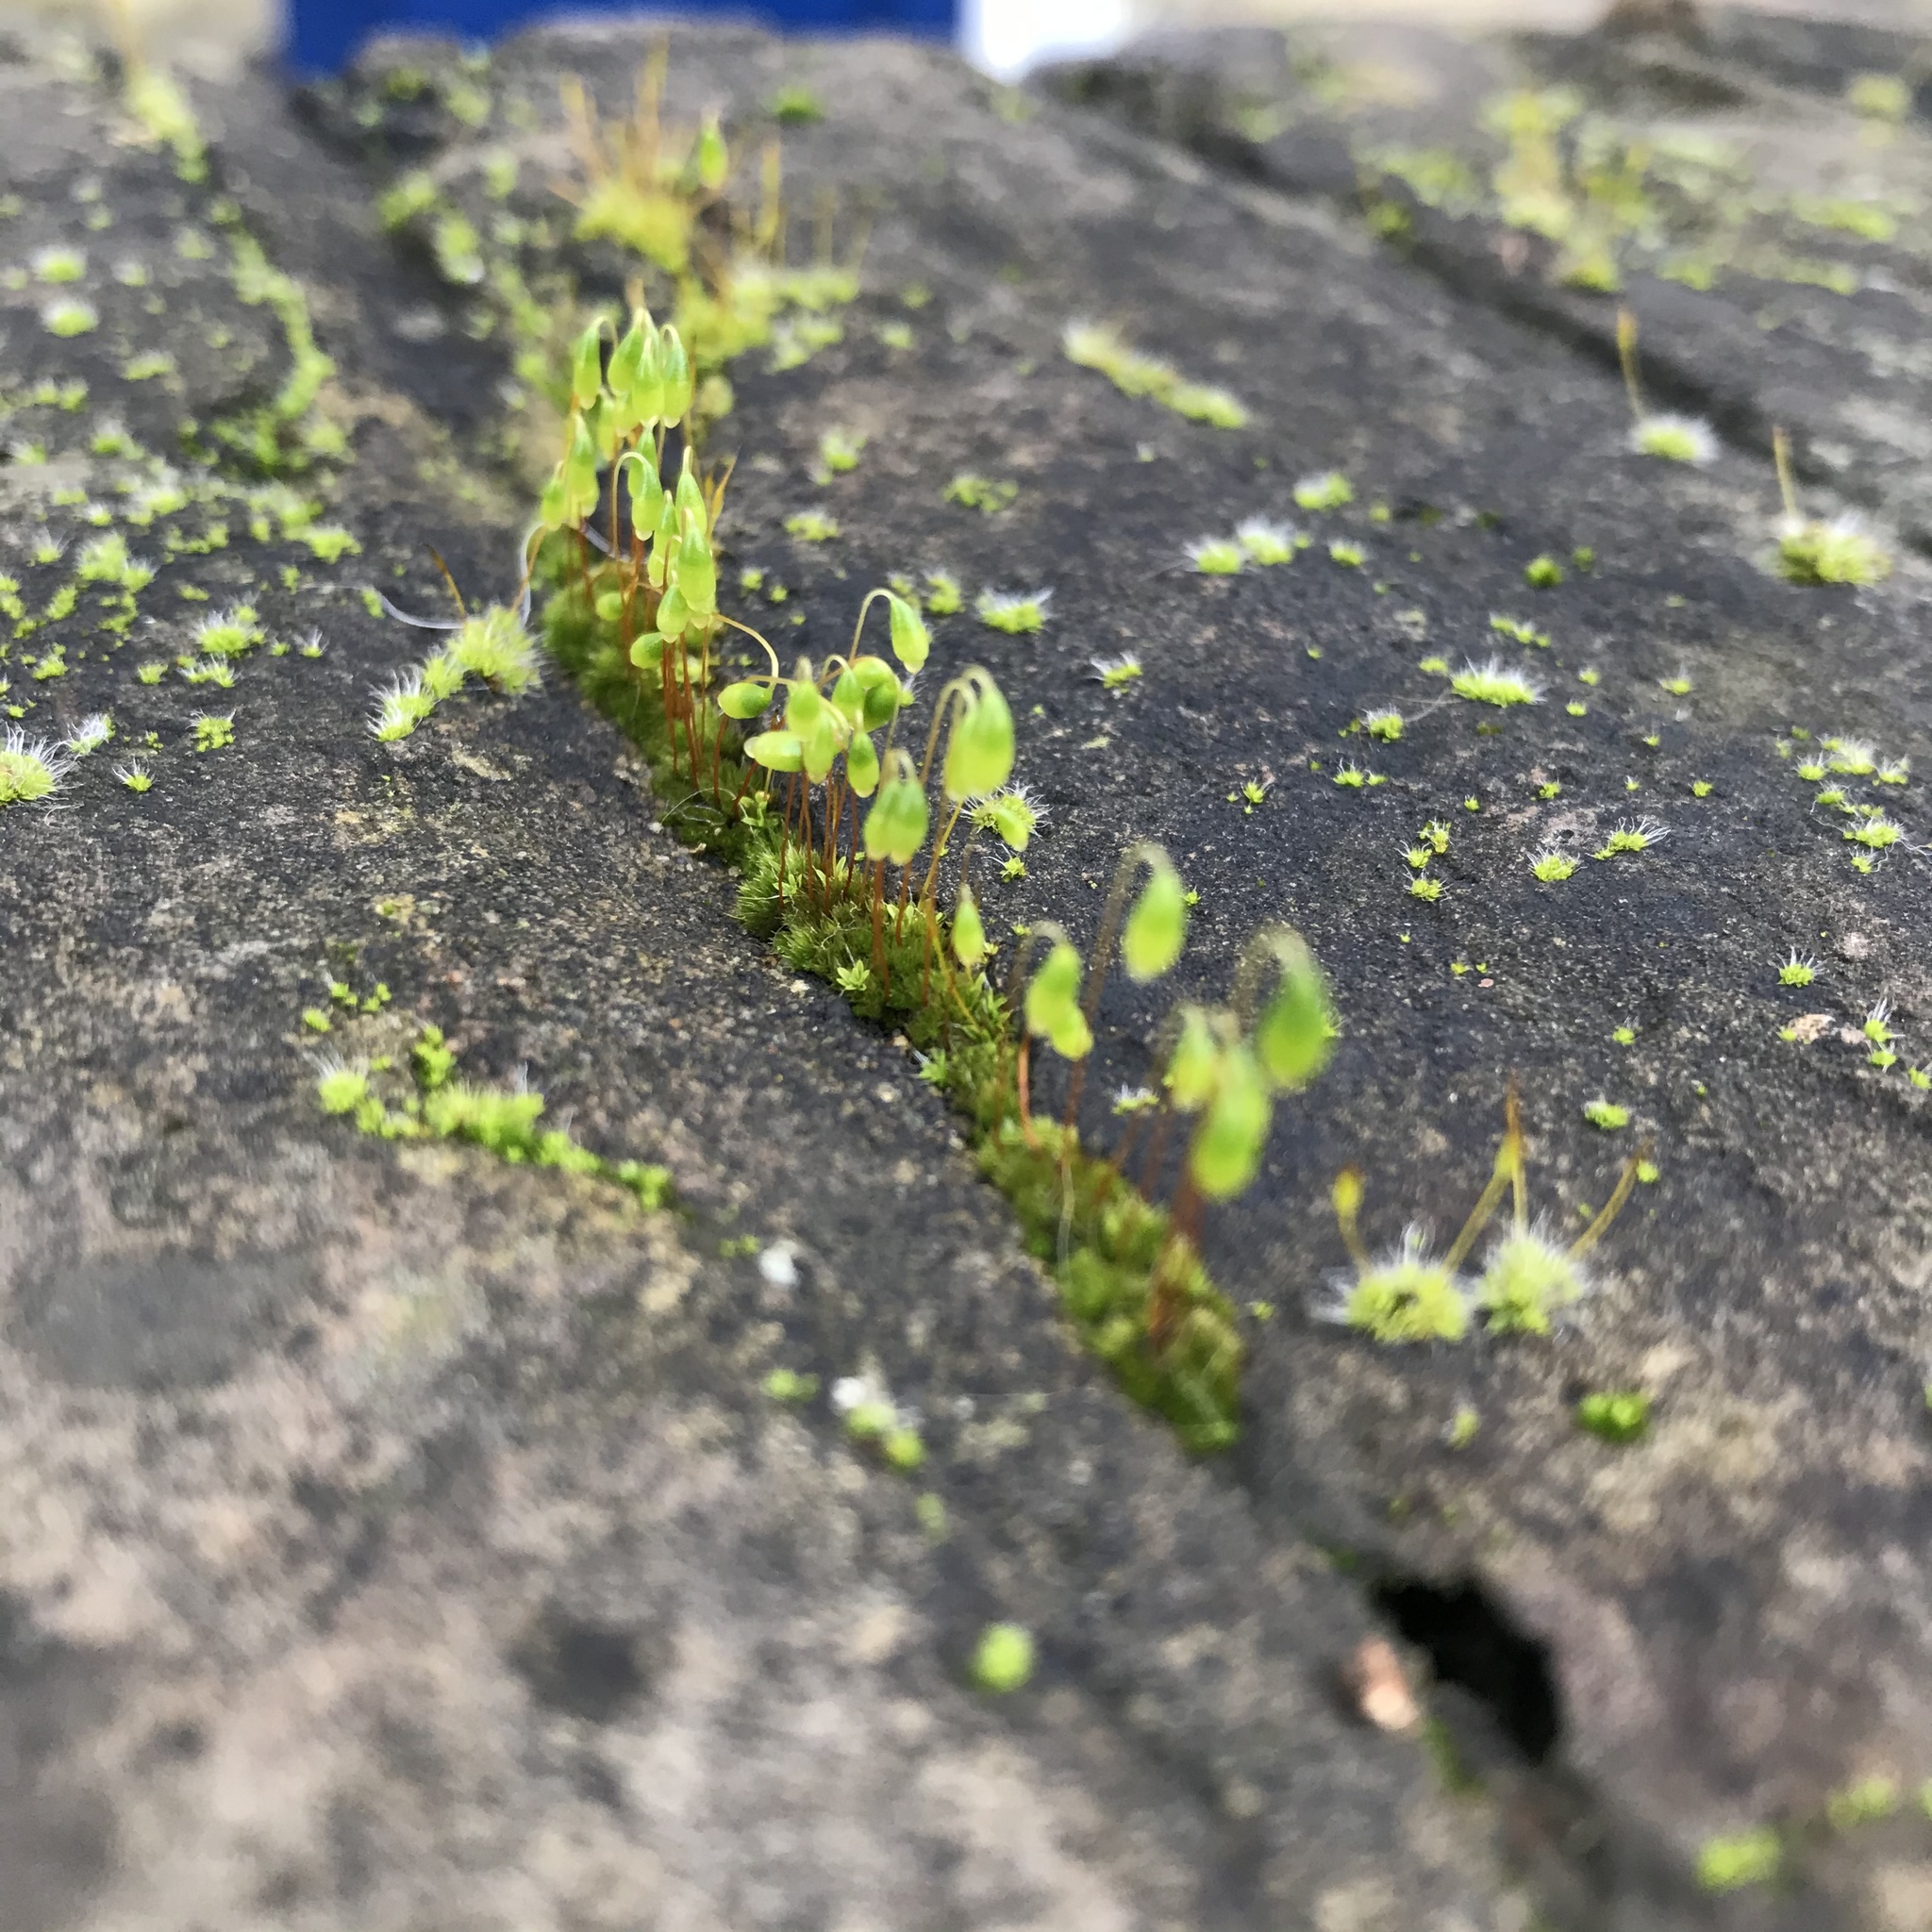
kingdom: Plantae
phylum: Bryophyta
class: Bryopsida
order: Bryales
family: Bryaceae
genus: Rosulabryum
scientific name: Rosulabryum capillare
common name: Capillary thread-moss
